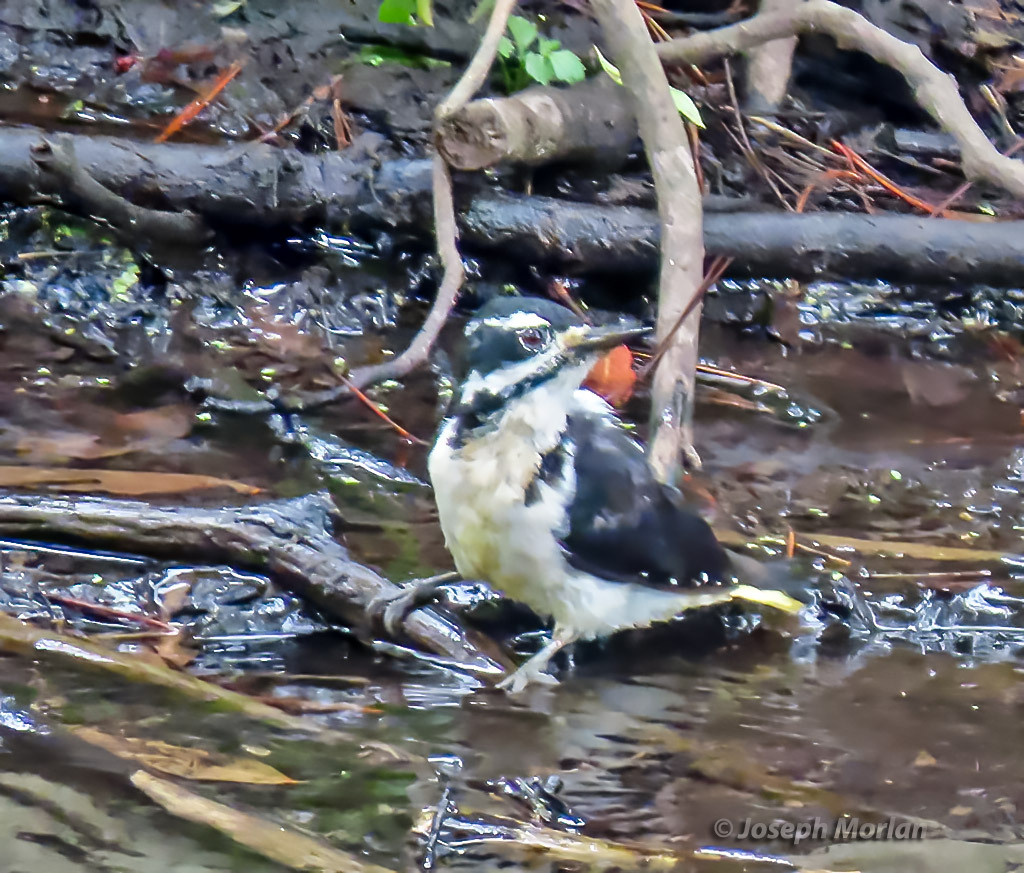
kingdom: Animalia
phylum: Chordata
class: Aves
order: Piciformes
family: Picidae
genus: Leuconotopicus
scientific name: Leuconotopicus villosus
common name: Hairy woodpecker
